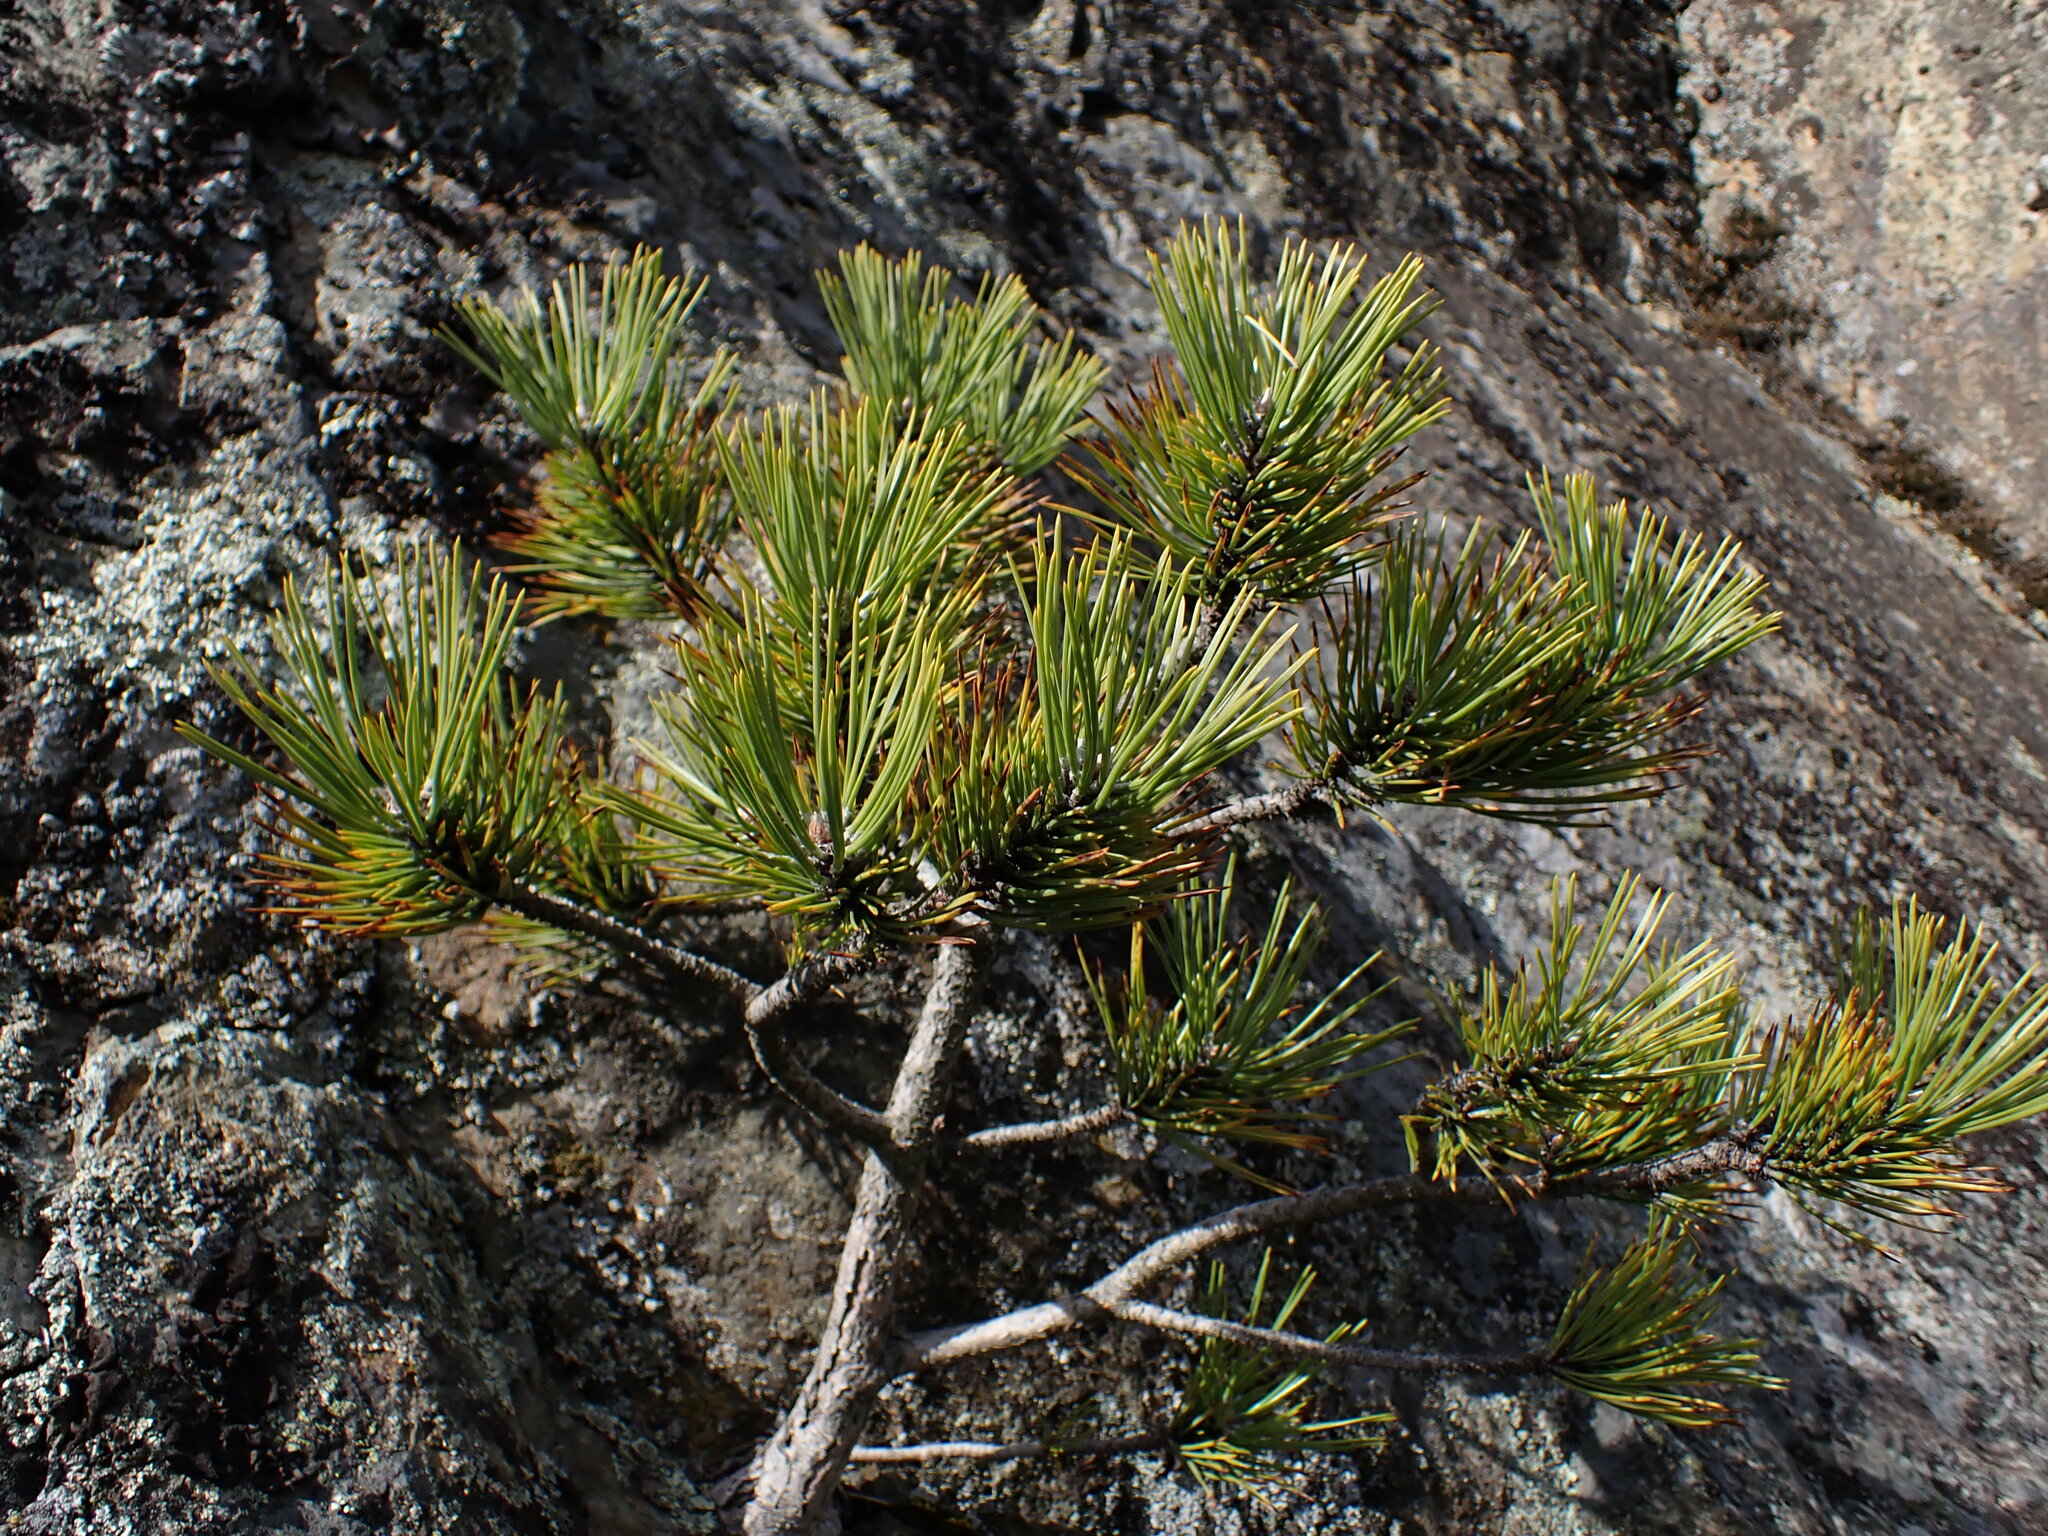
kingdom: Plantae
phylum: Tracheophyta
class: Pinopsida
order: Pinales
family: Pinaceae
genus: Pinus
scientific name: Pinus contorta
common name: Lodgepole pine
